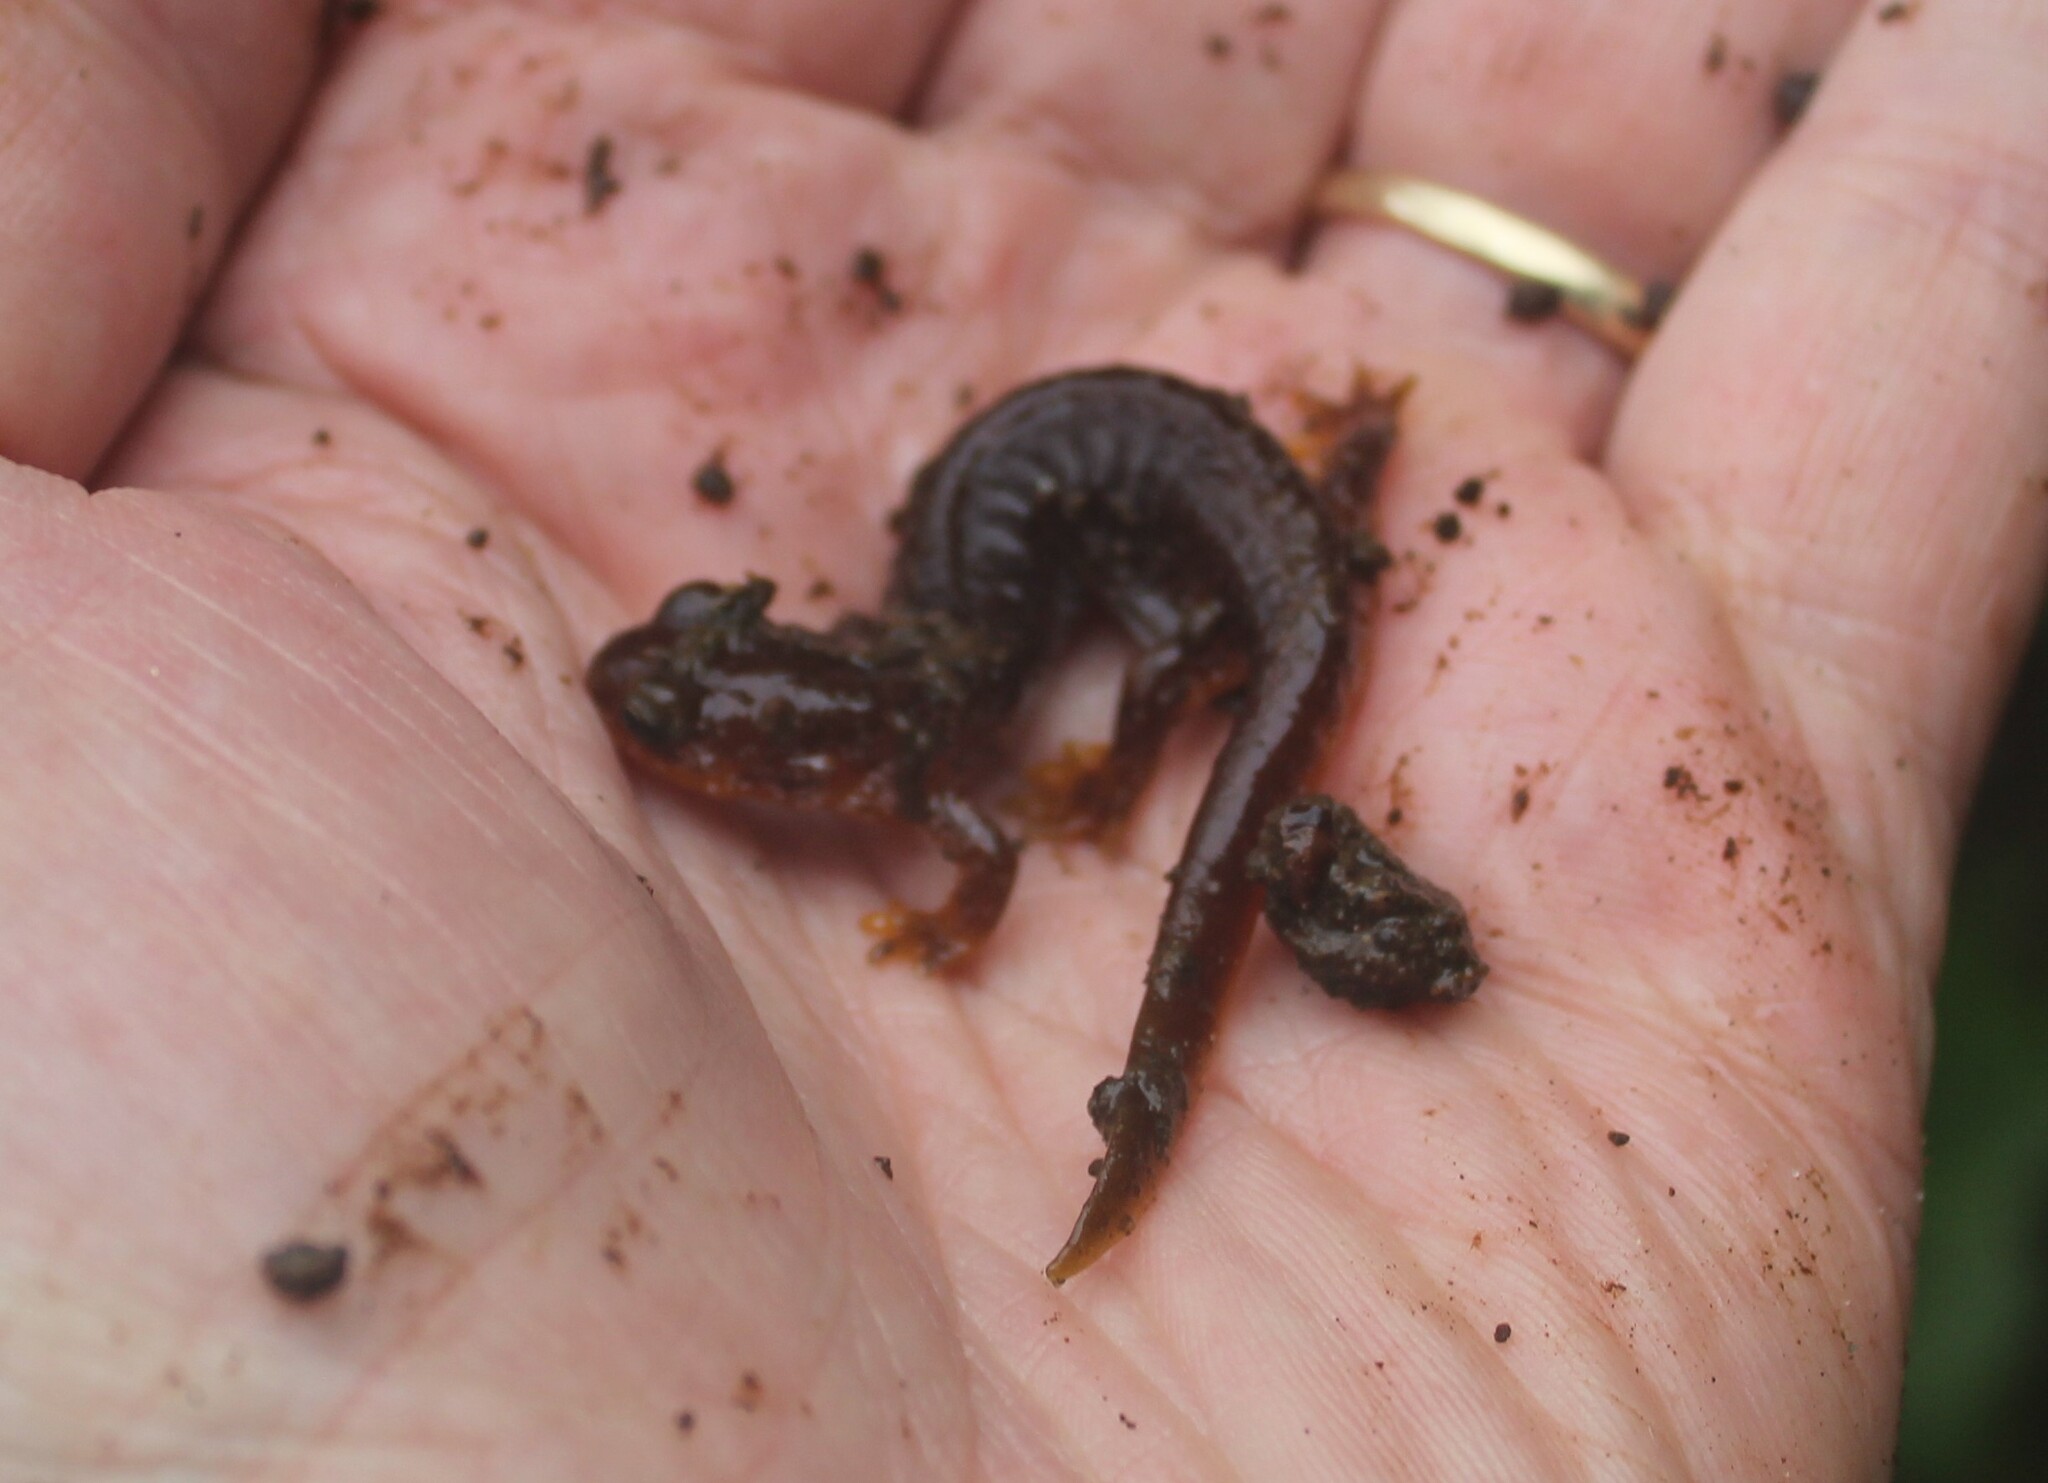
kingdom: Animalia
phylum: Chordata
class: Amphibia
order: Caudata
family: Rhyacotritonidae
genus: Rhyacotriton
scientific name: Rhyacotriton kezeri
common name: Columbia torrent salamander
